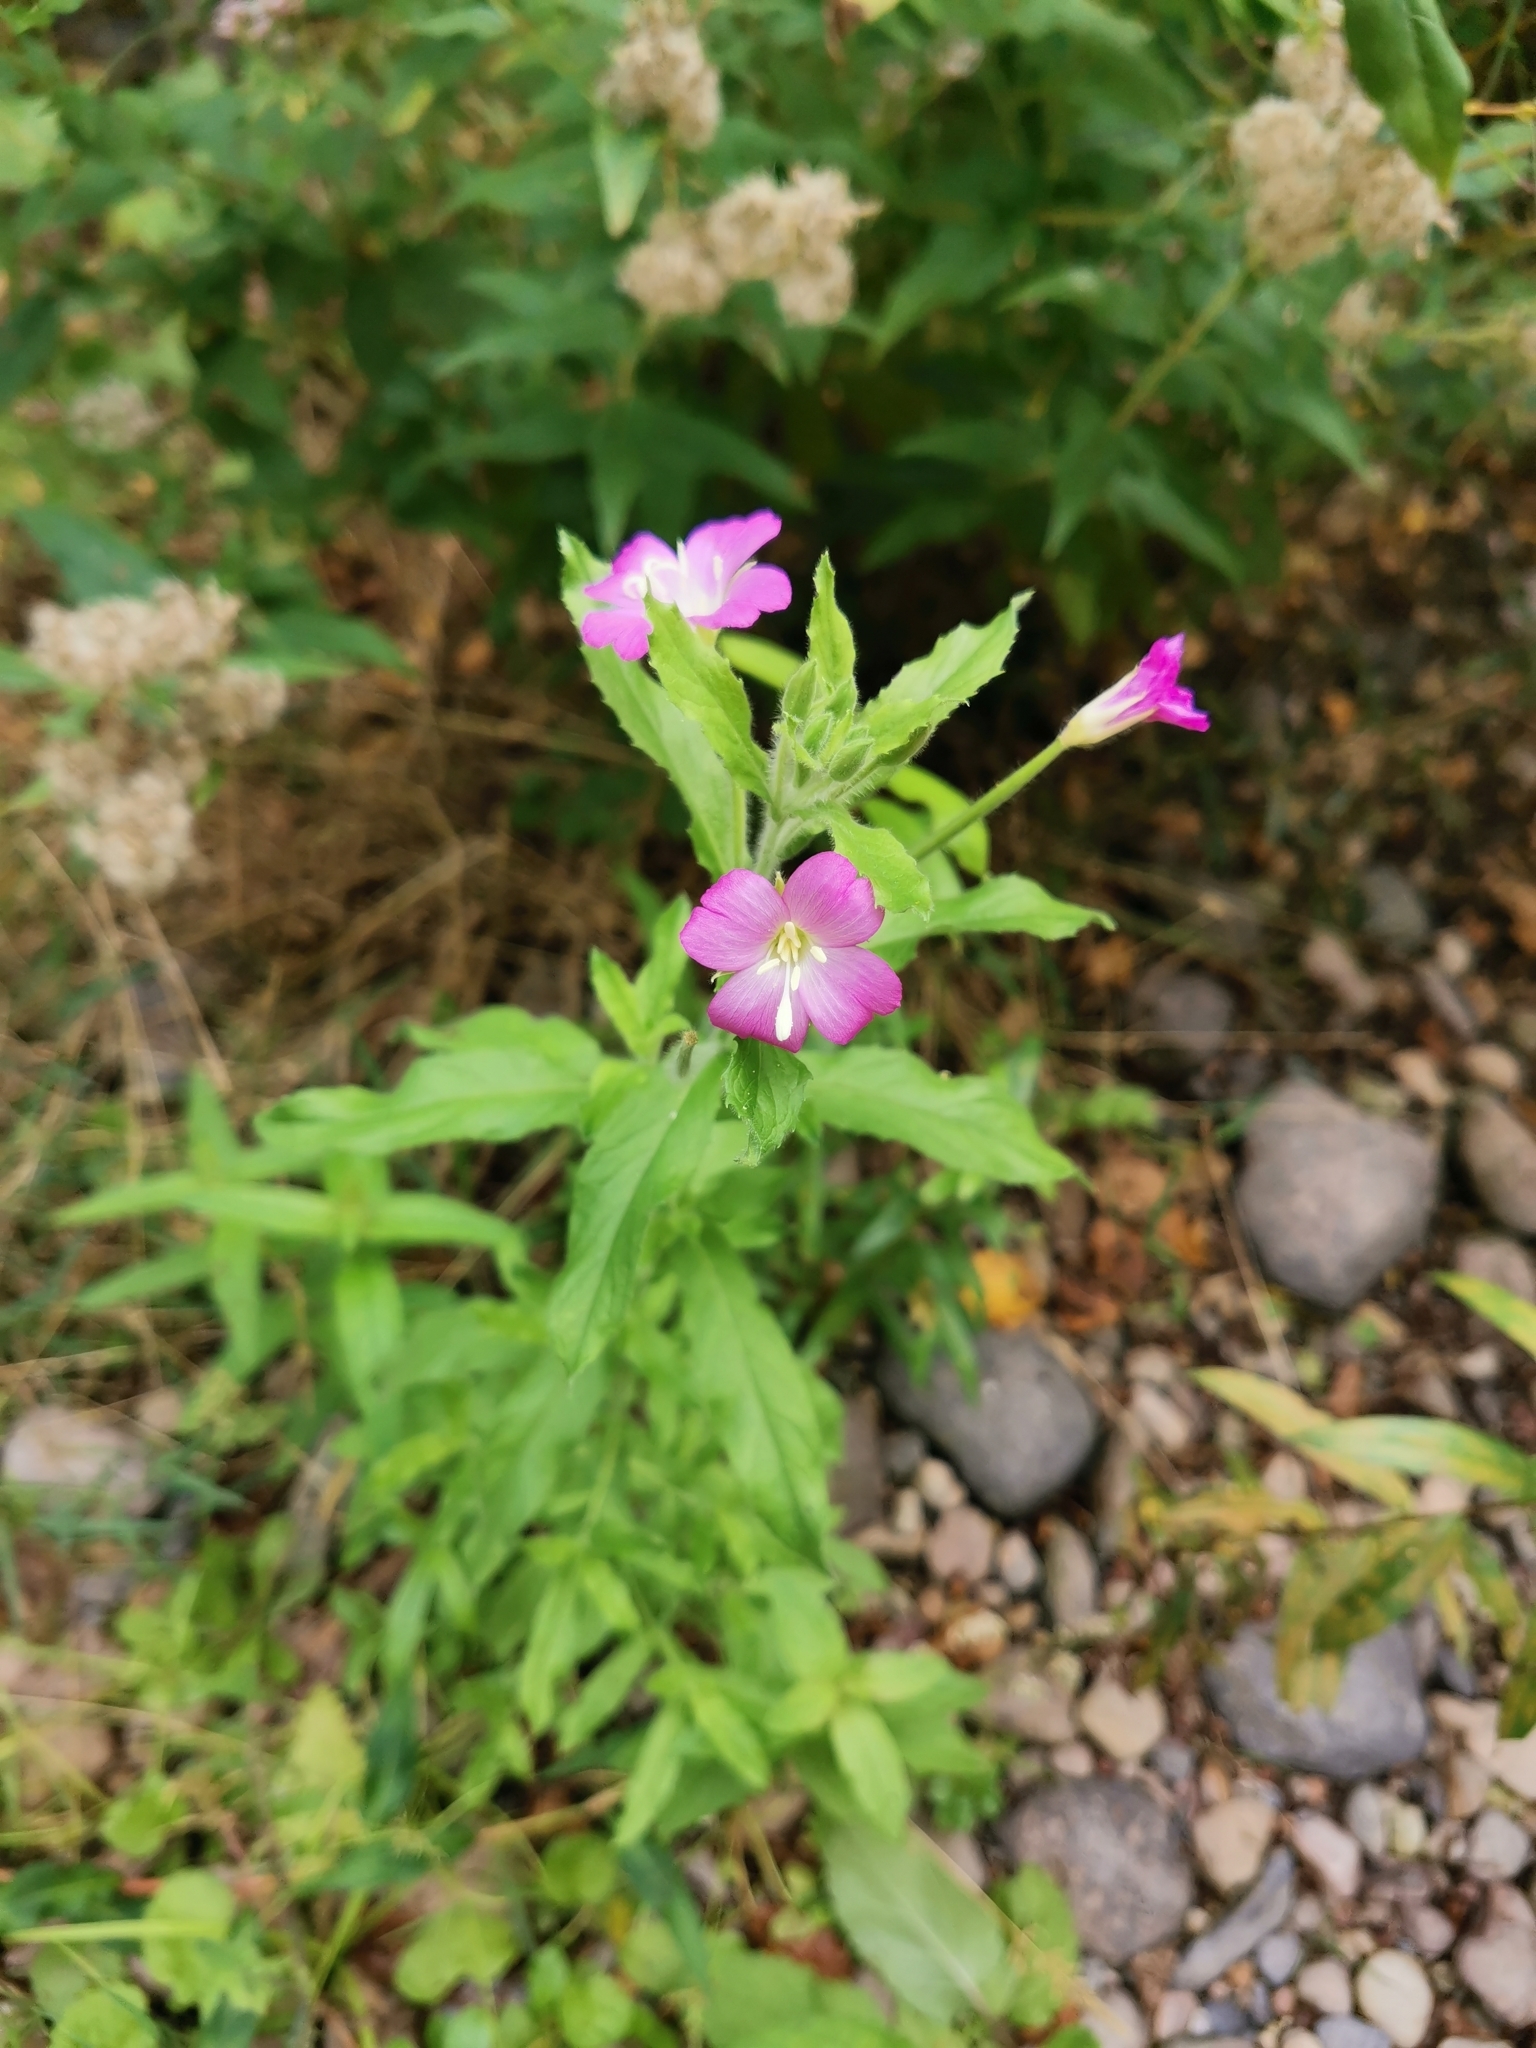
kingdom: Plantae
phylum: Tracheophyta
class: Magnoliopsida
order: Myrtales
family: Onagraceae
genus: Epilobium
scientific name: Epilobium hirsutum
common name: Great willowherb
